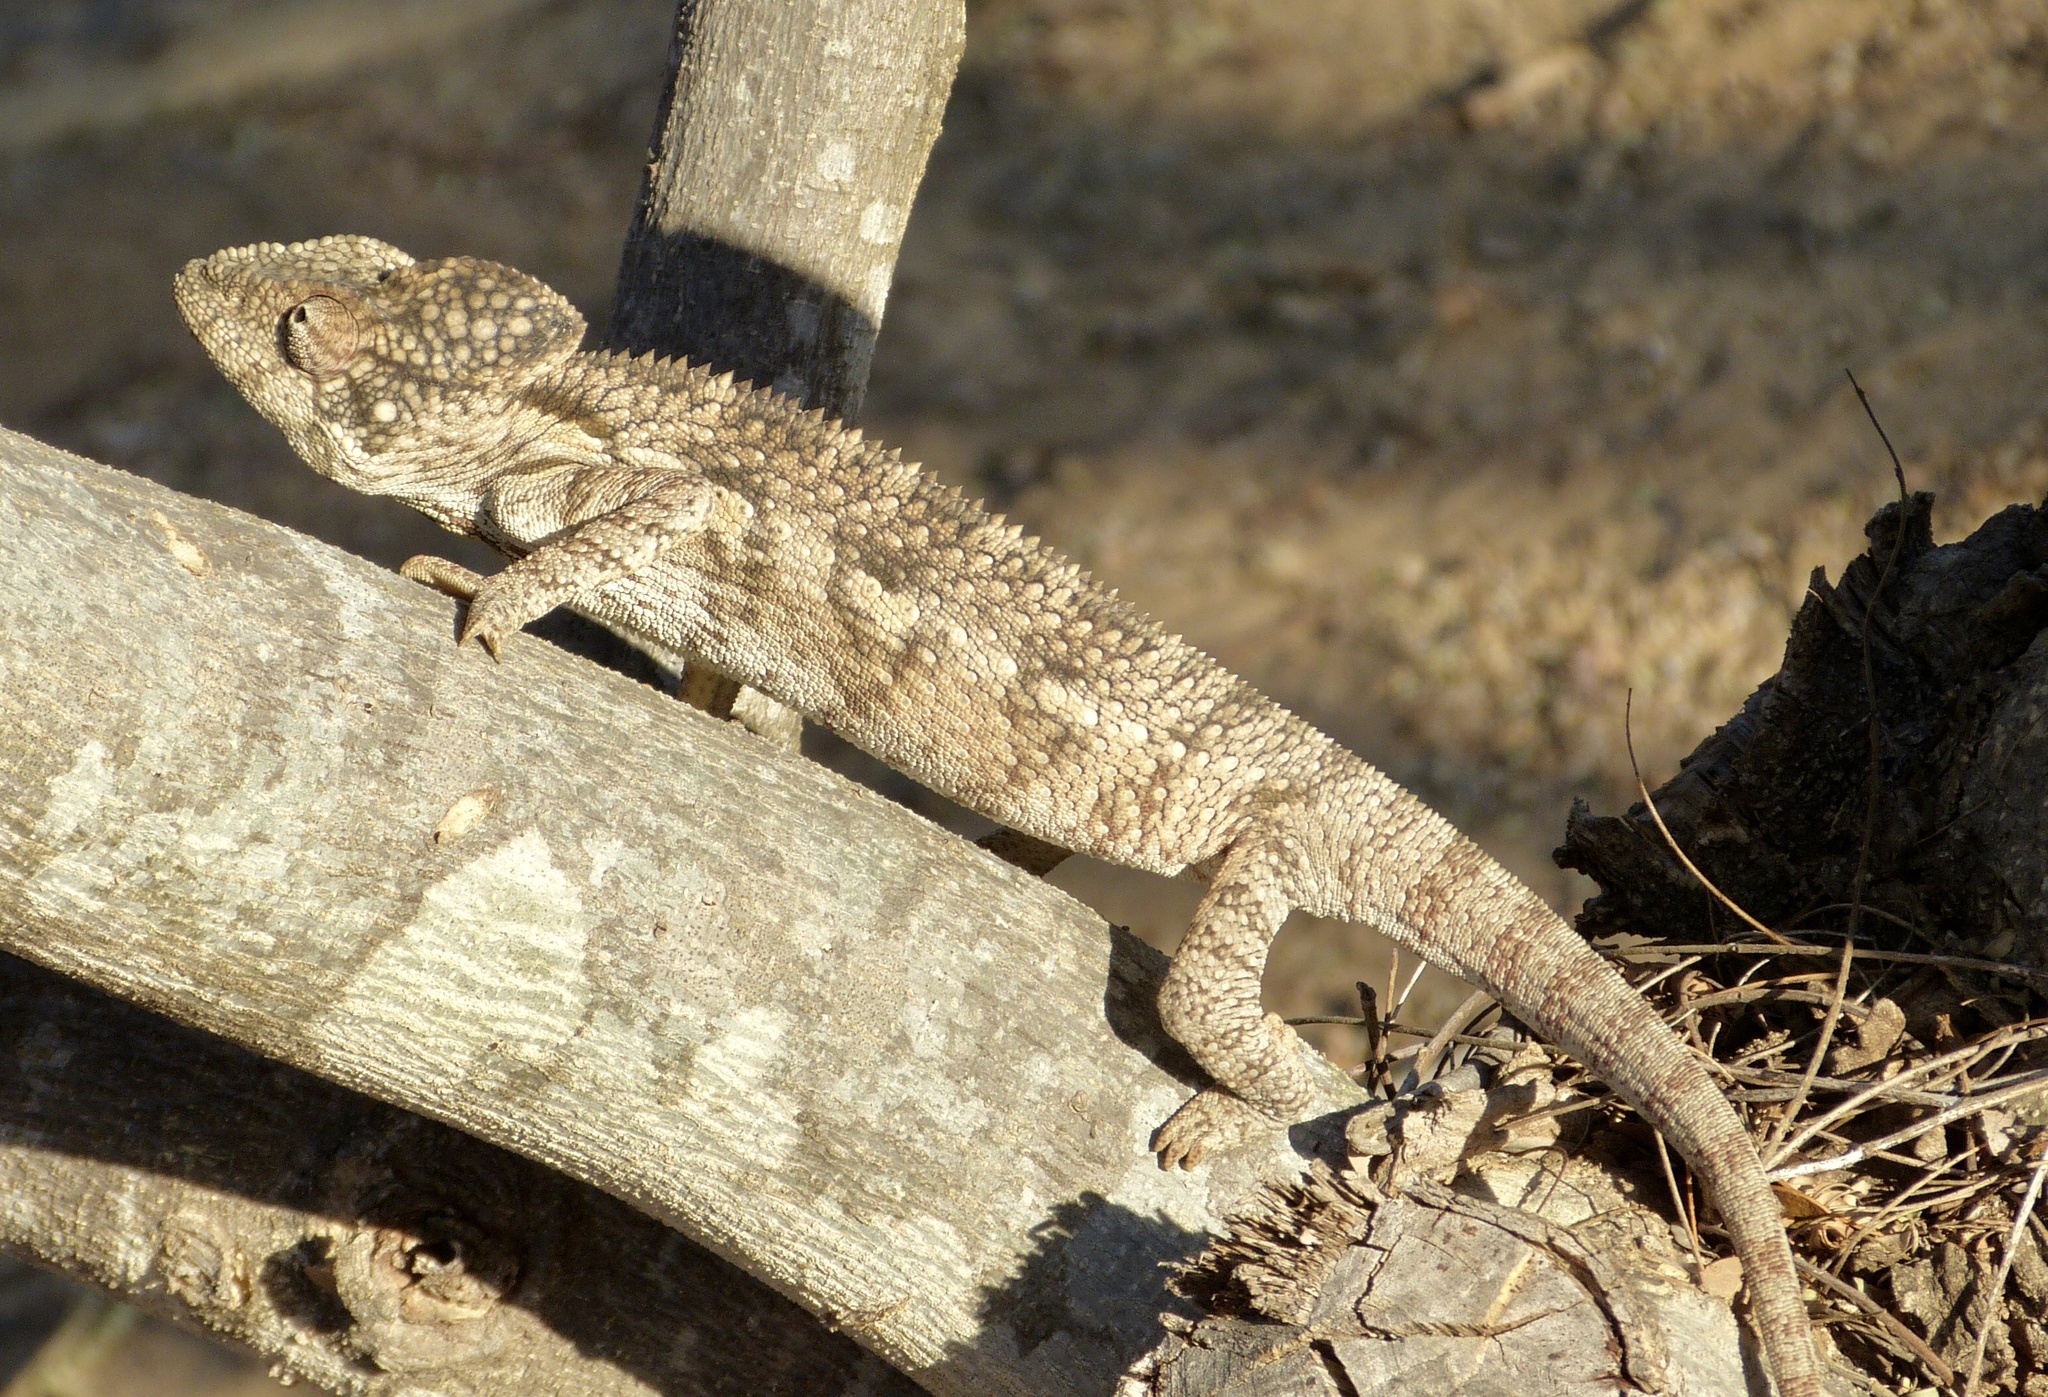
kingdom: Animalia
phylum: Chordata
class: Squamata
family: Chamaeleonidae
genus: Furcifer
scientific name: Furcifer oustaleti
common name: Oustalet's chameleon
